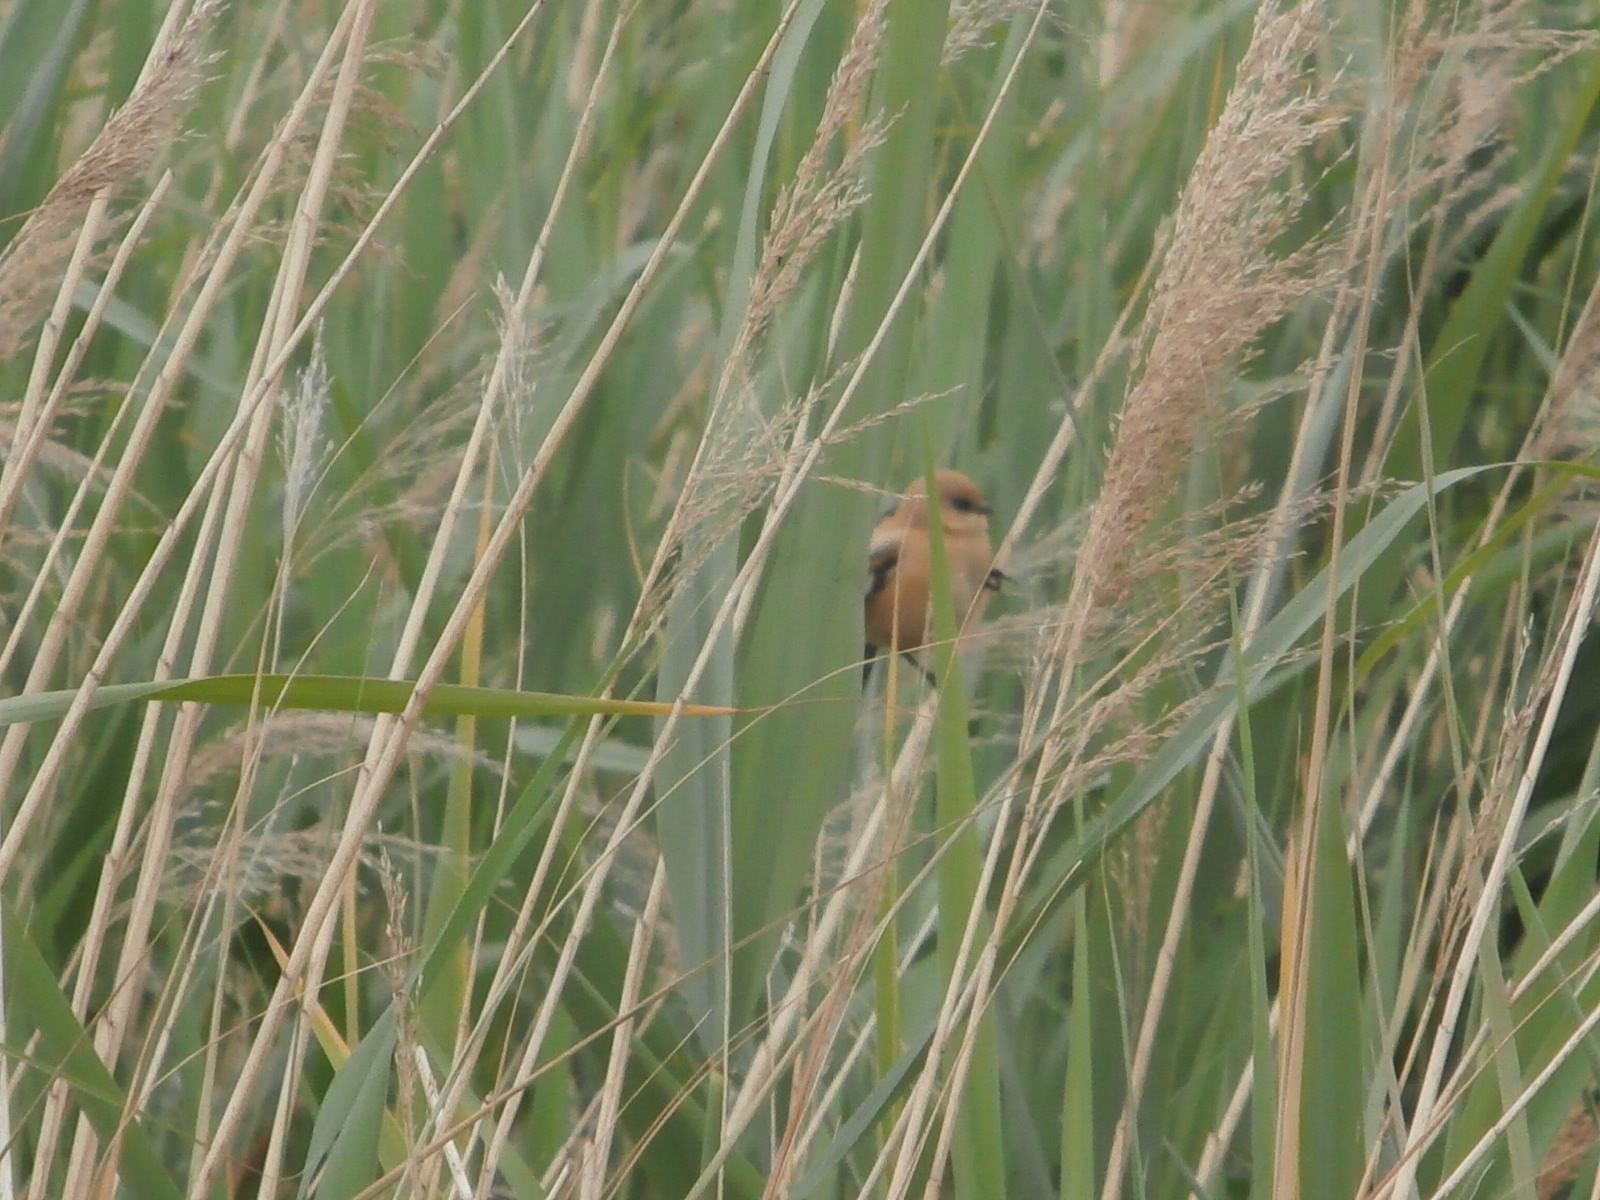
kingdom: Animalia
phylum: Chordata
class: Aves
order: Passeriformes
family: Panuridae
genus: Panurus
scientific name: Panurus biarmicus
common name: Bearded reedling
